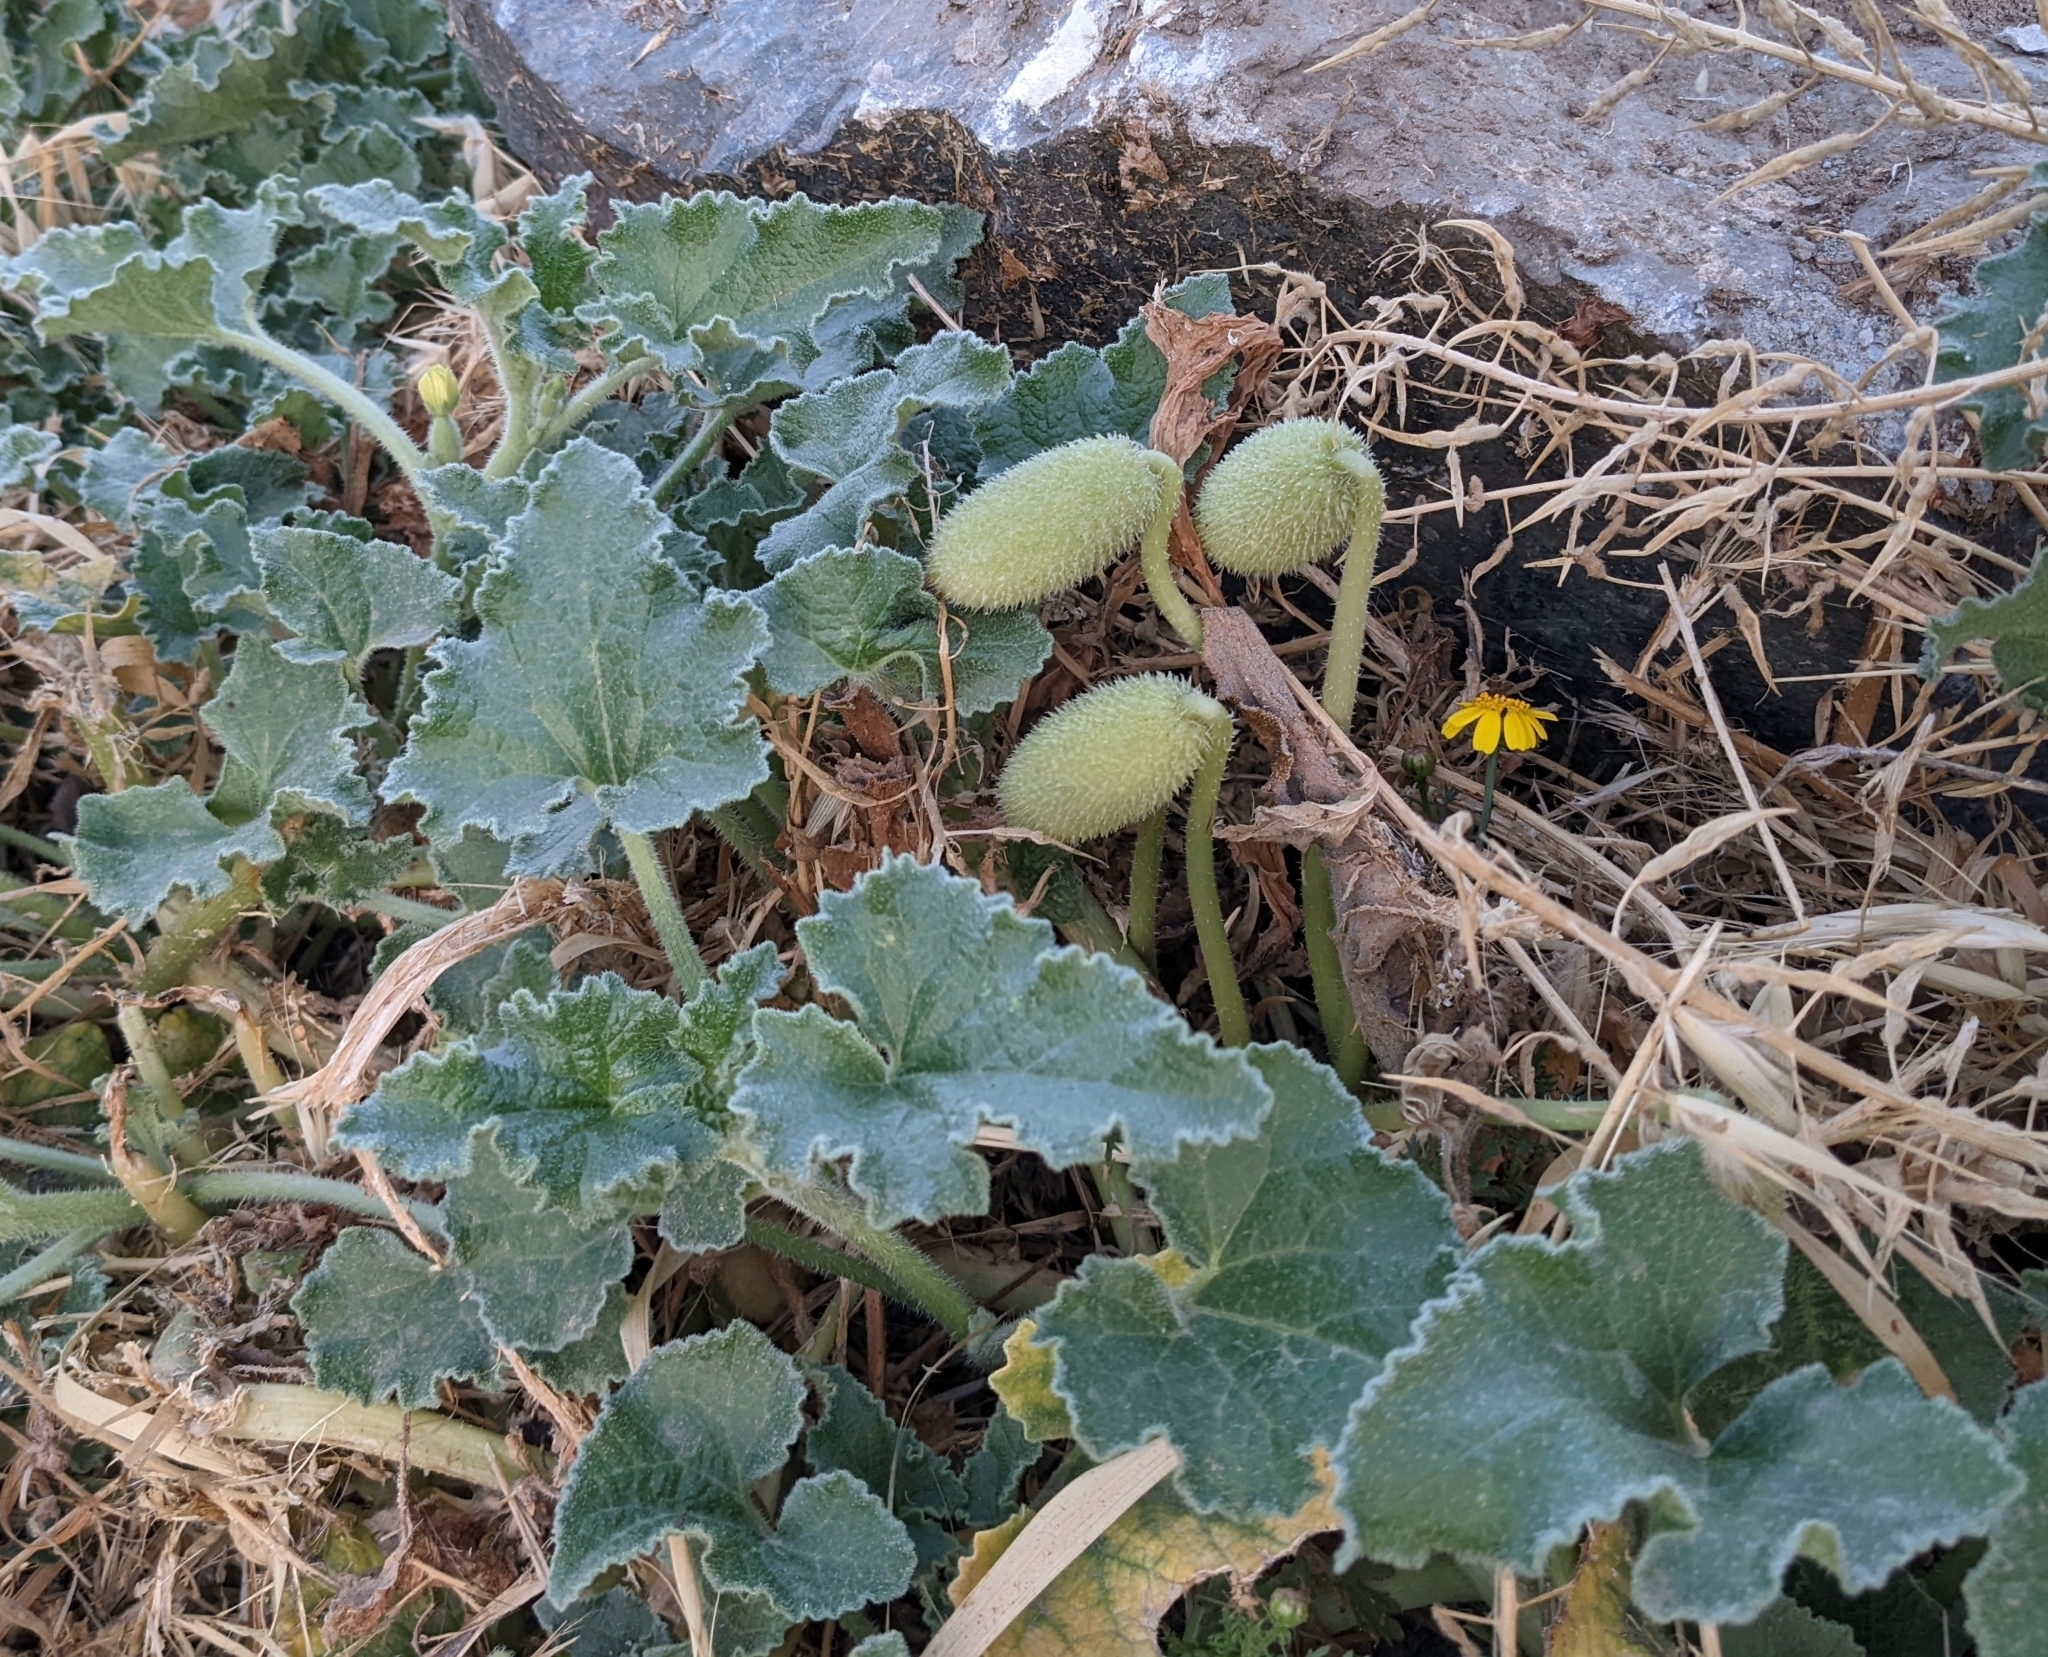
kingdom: Plantae
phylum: Tracheophyta
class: Magnoliopsida
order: Cucurbitales
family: Cucurbitaceae
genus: Ecballium
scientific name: Ecballium elaterium
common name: Squirting cucumber
